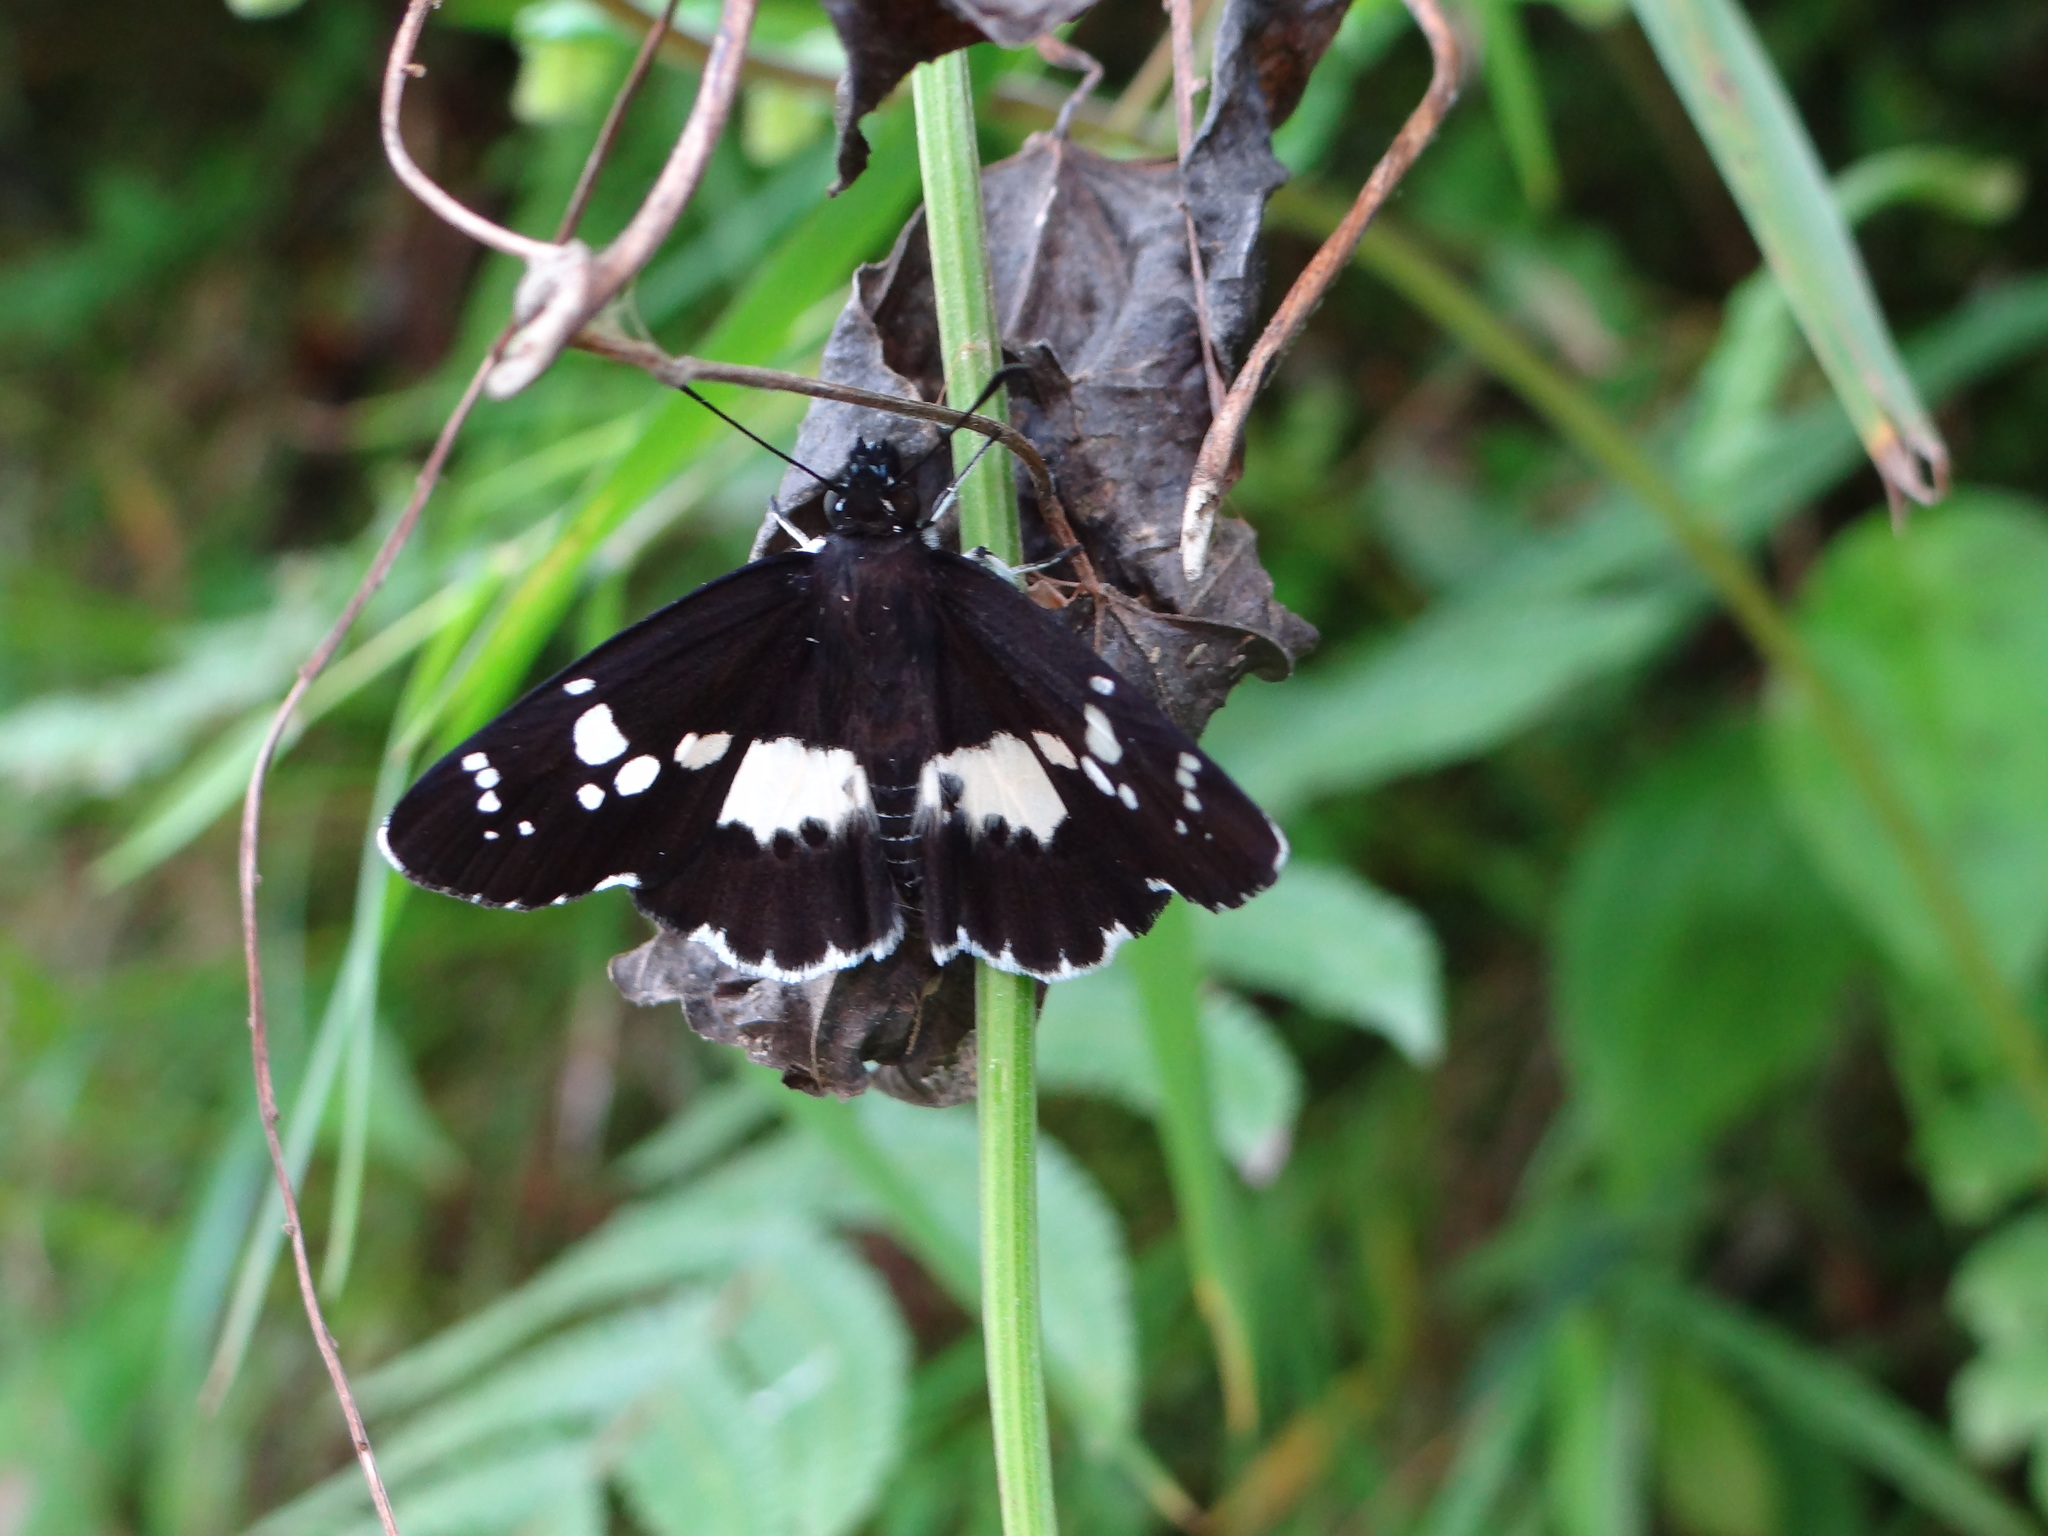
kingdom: Animalia
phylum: Arthropoda
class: Insecta
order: Lepidoptera
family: Hesperiidae
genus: Daimio
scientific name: Daimio tethys
